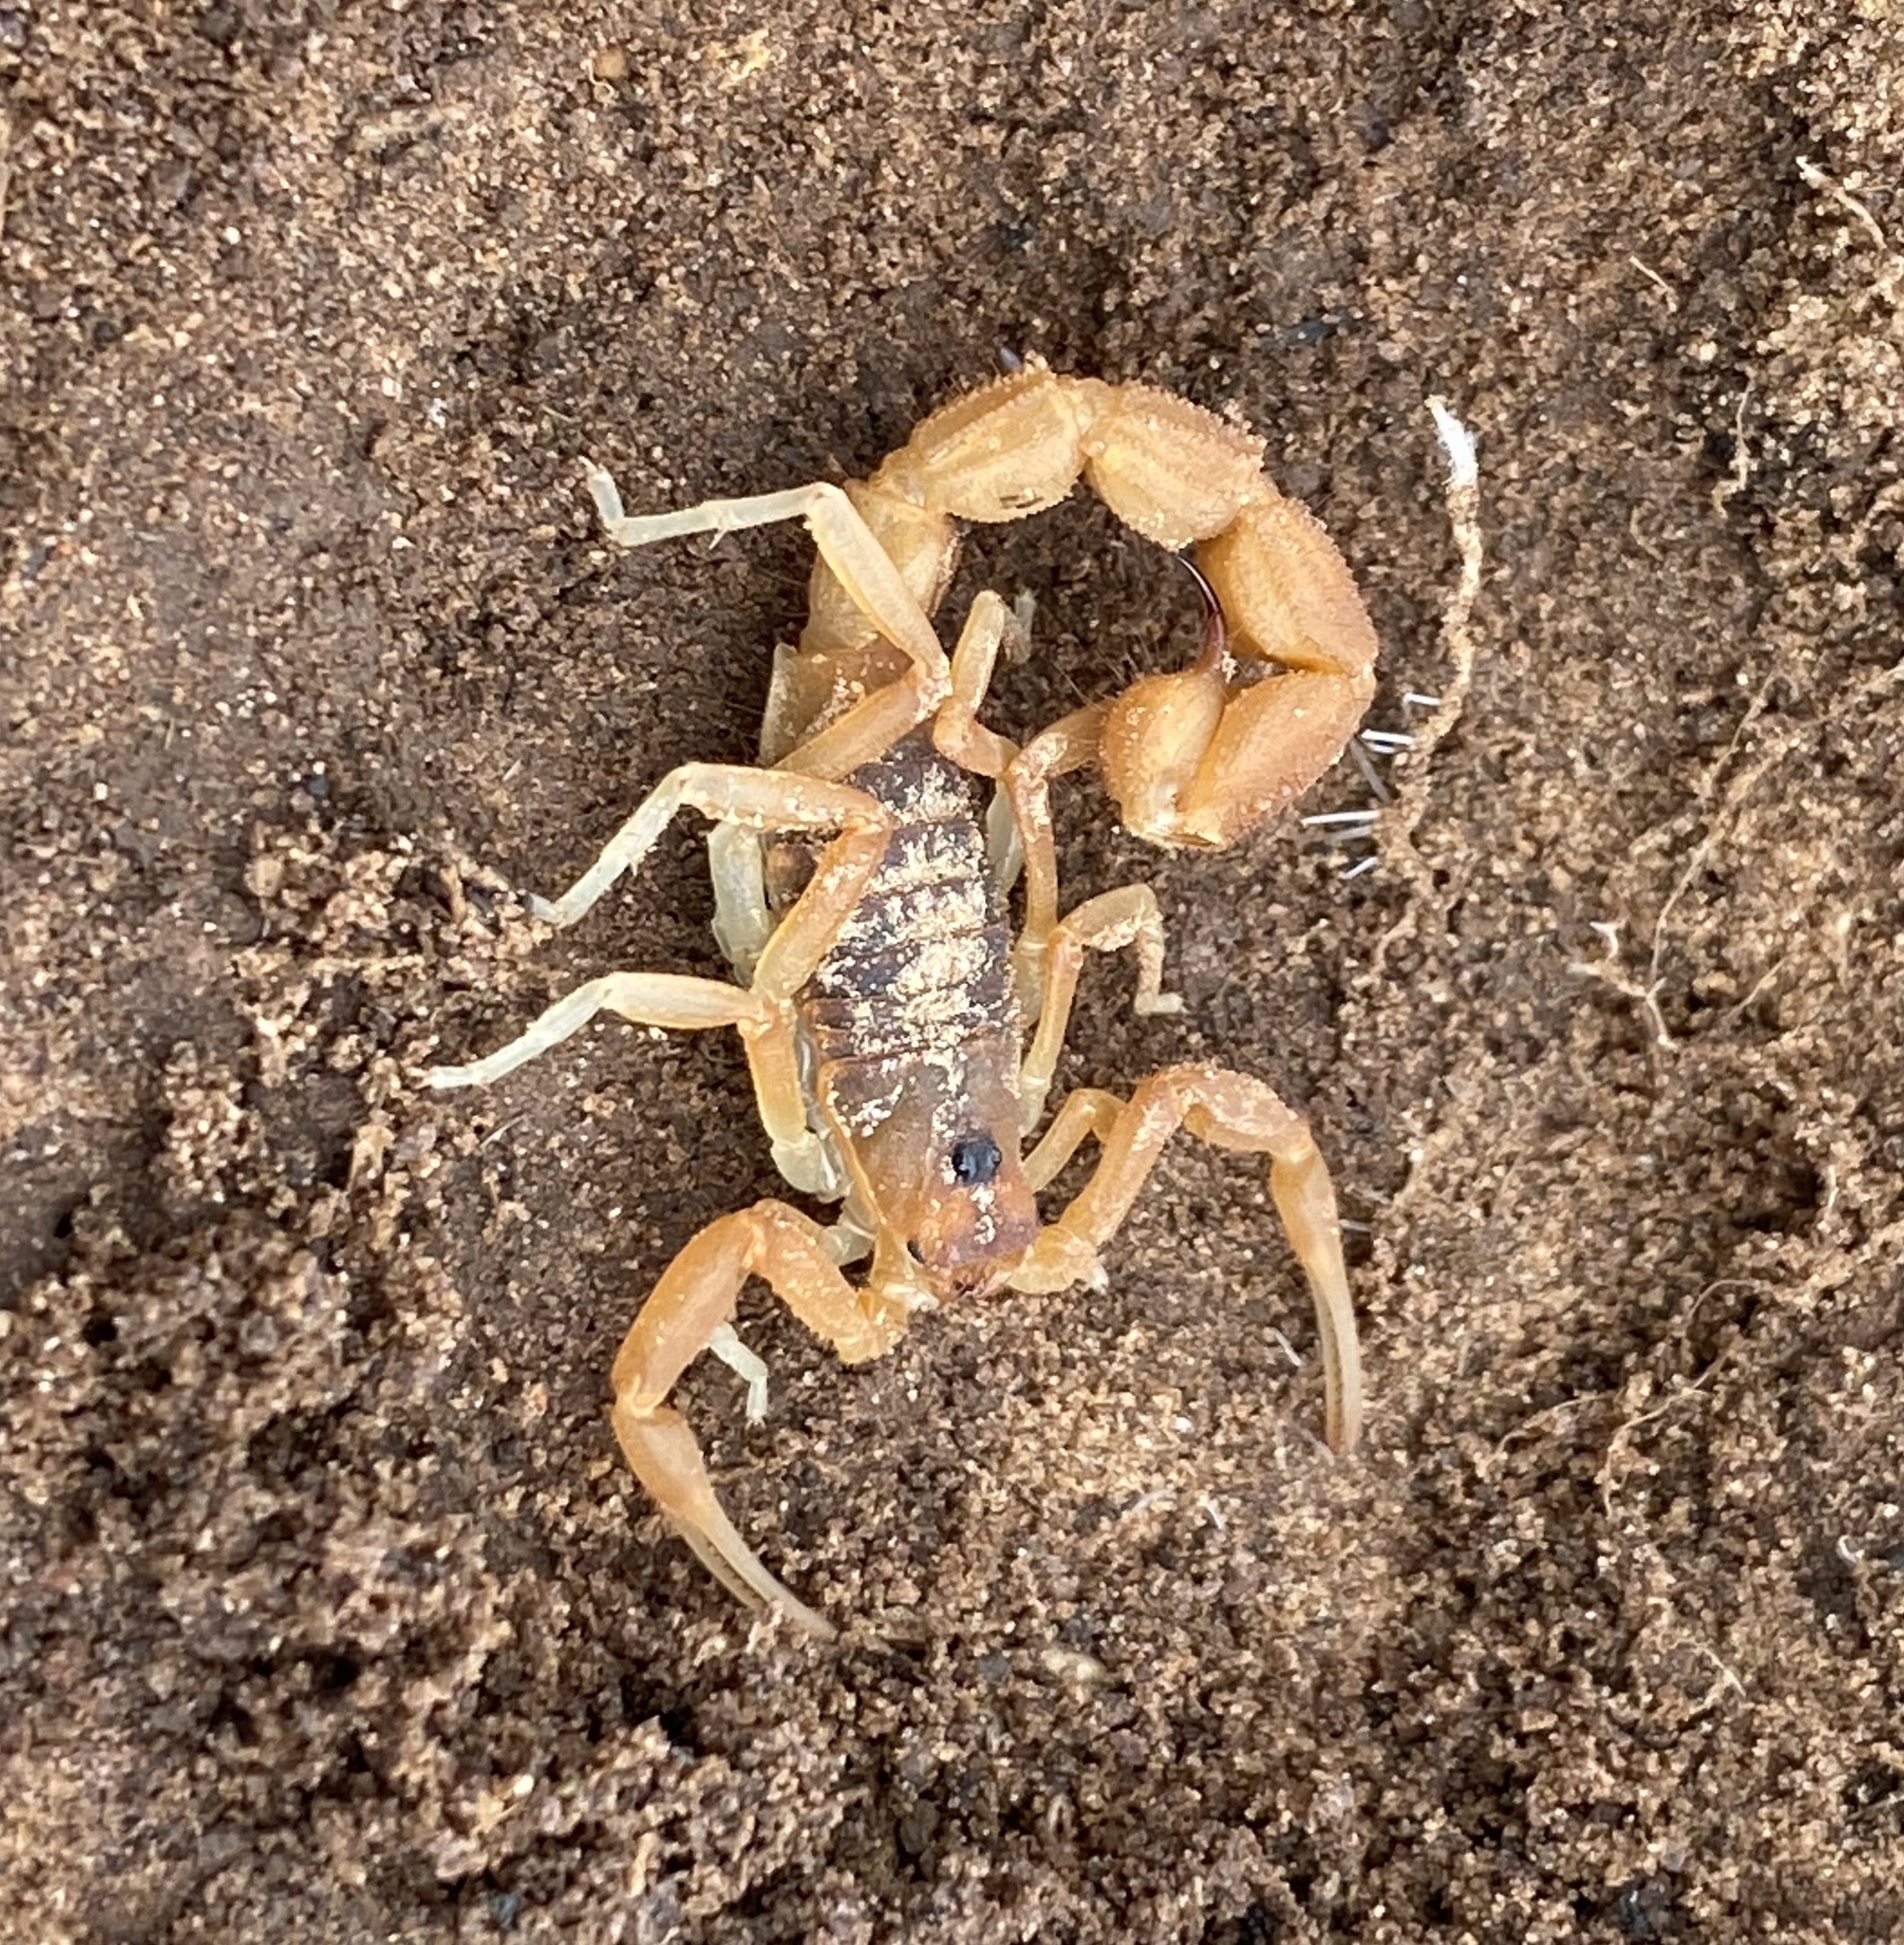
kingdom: Animalia
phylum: Arthropoda
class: Arachnida
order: Scorpiones
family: Buthidae
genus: Parabuthus
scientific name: Parabuthus planicauda
